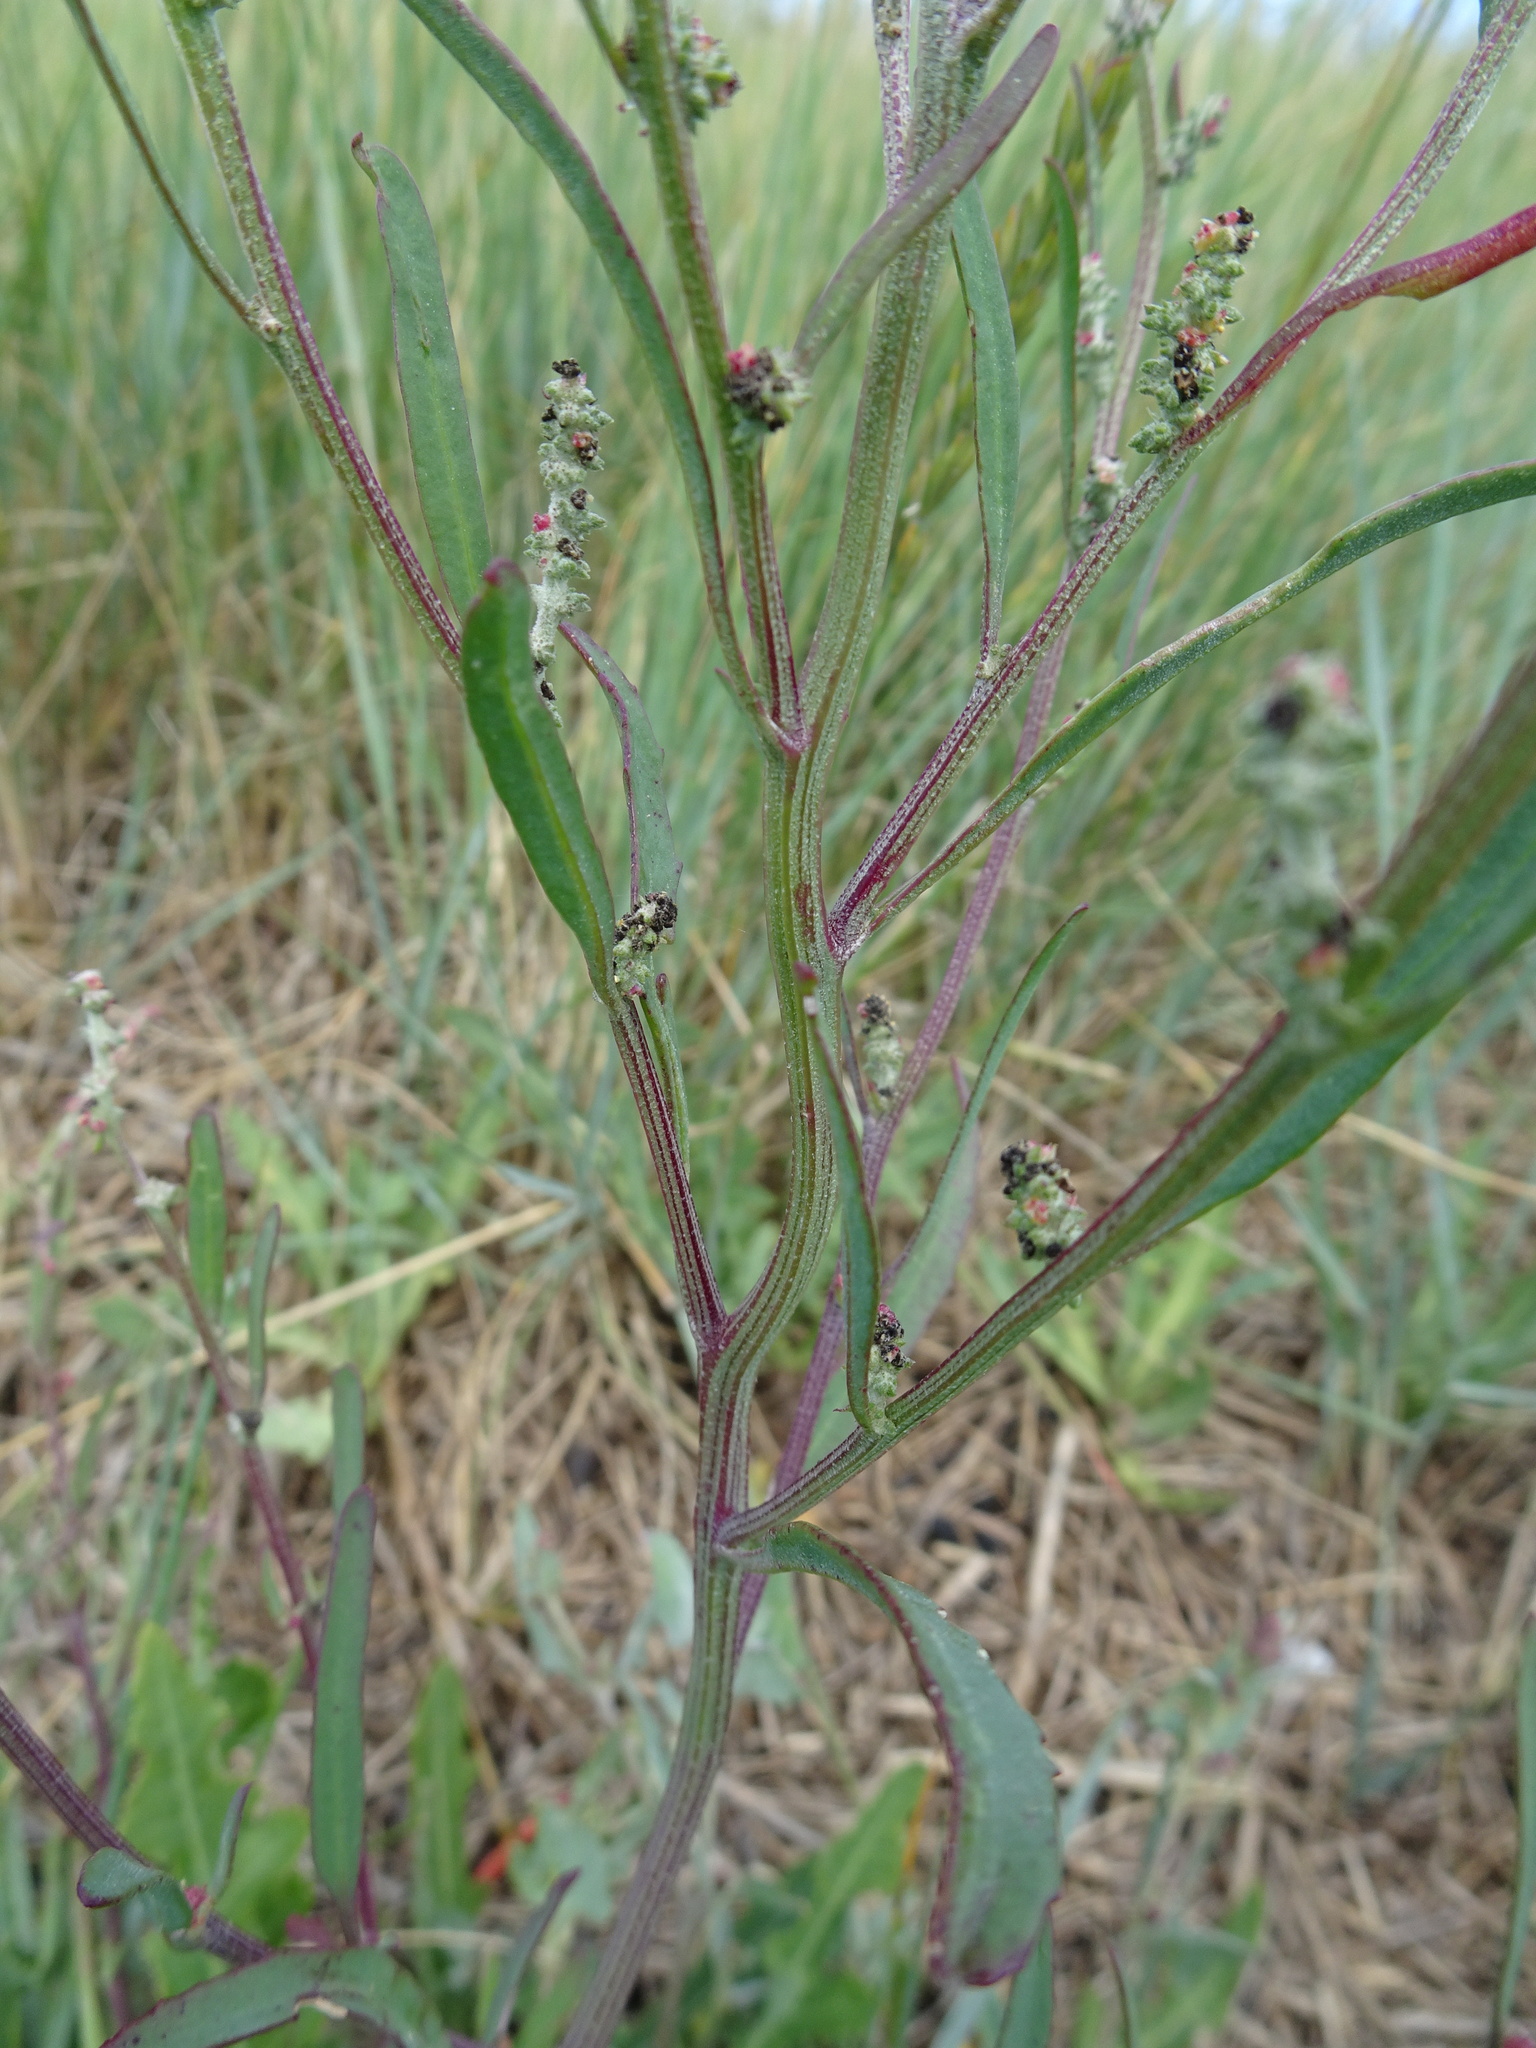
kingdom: Plantae
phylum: Tracheophyta
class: Magnoliopsida
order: Caryophyllales
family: Amaranthaceae
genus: Atriplex
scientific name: Atriplex littoralis
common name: Grass-leaved orache
